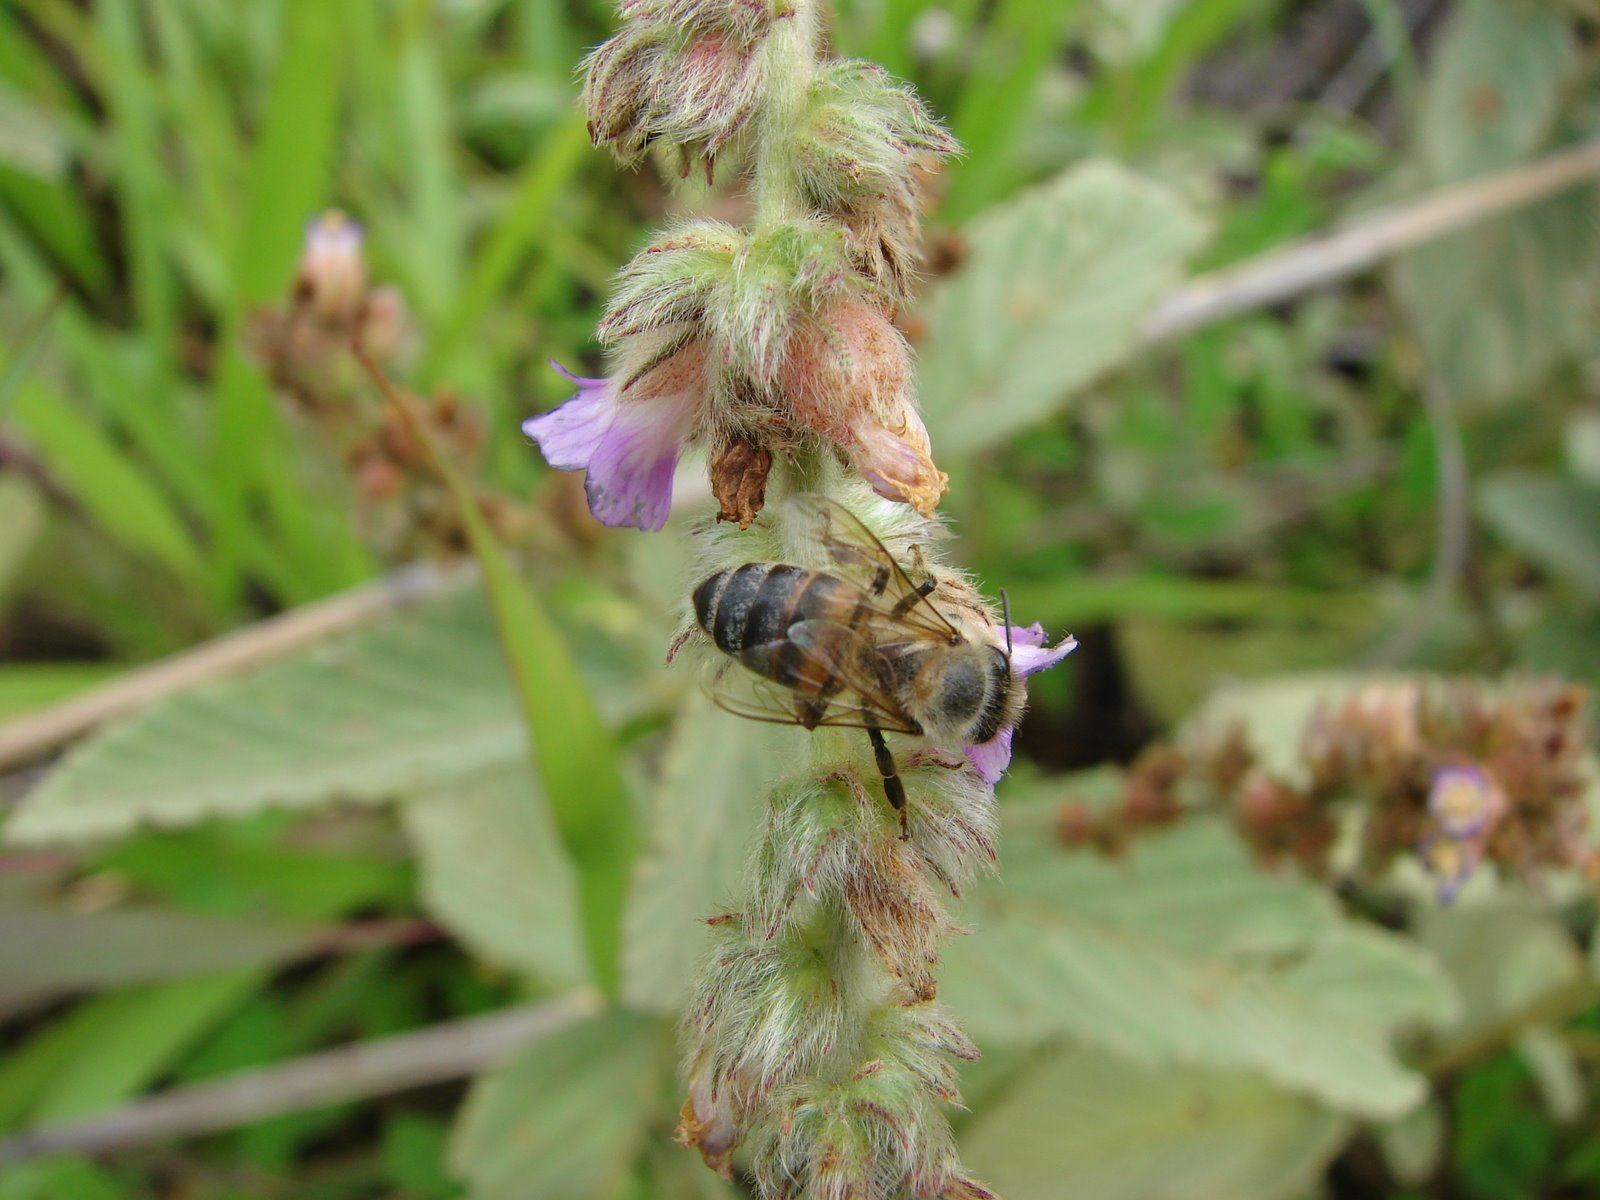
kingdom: Animalia
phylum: Arthropoda
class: Insecta
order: Hymenoptera
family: Apidae
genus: Apis
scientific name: Apis mellifera
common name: Honey bee
